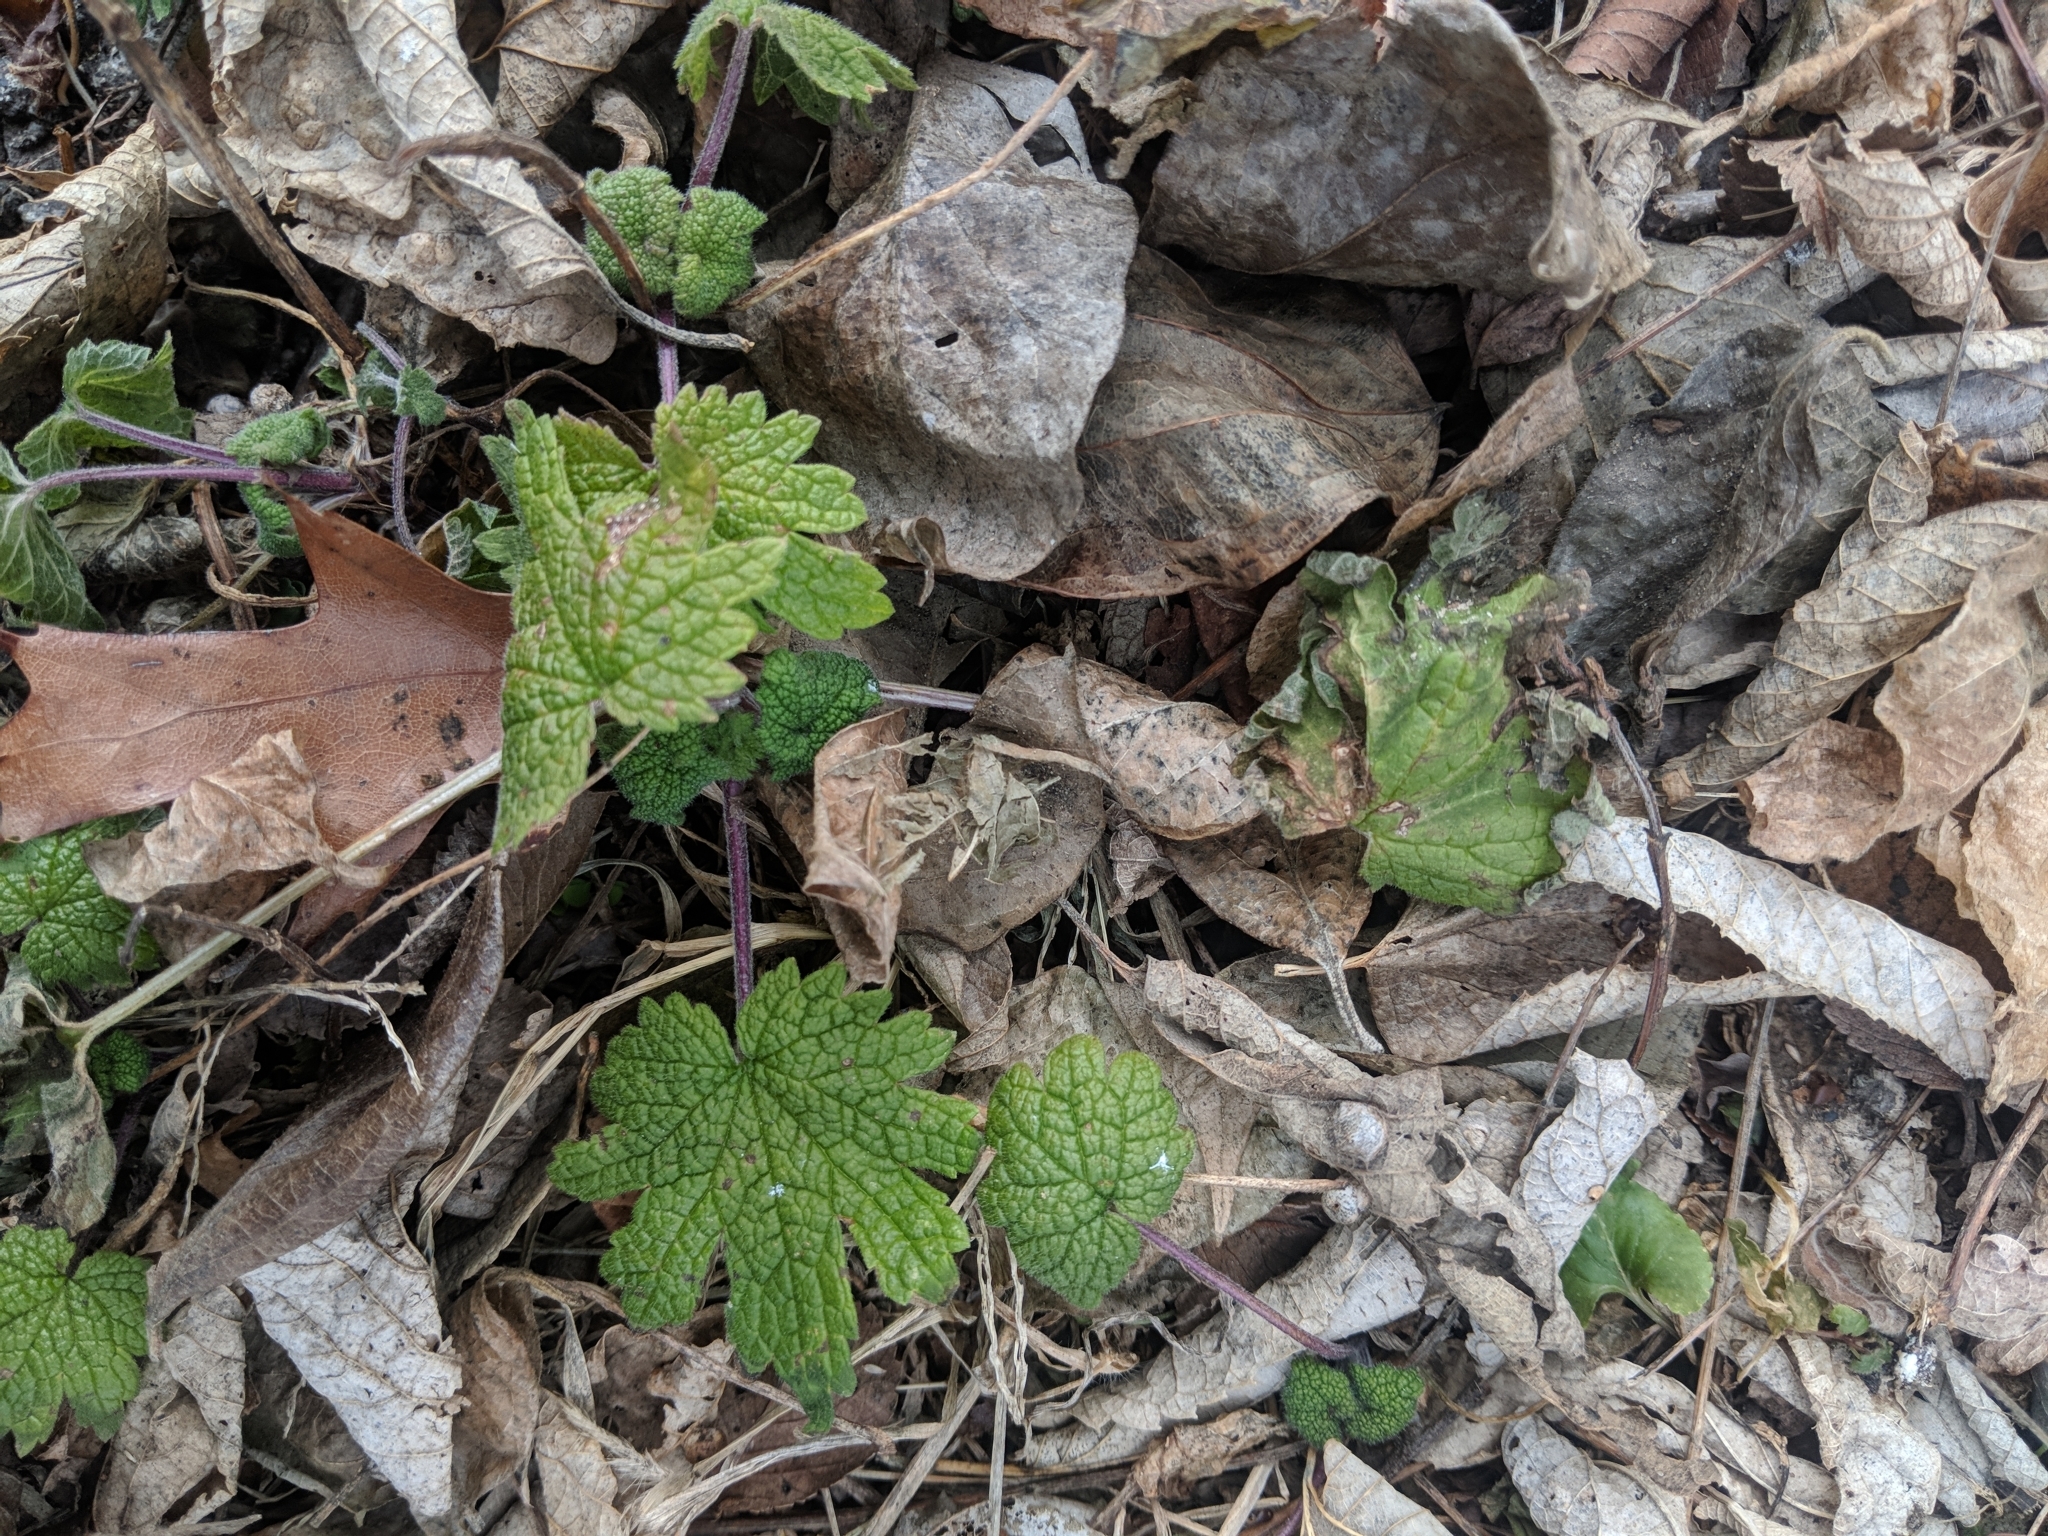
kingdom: Plantae
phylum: Tracheophyta
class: Magnoliopsida
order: Lamiales
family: Lamiaceae
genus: Leonurus
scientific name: Leonurus cardiaca
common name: Motherwort
